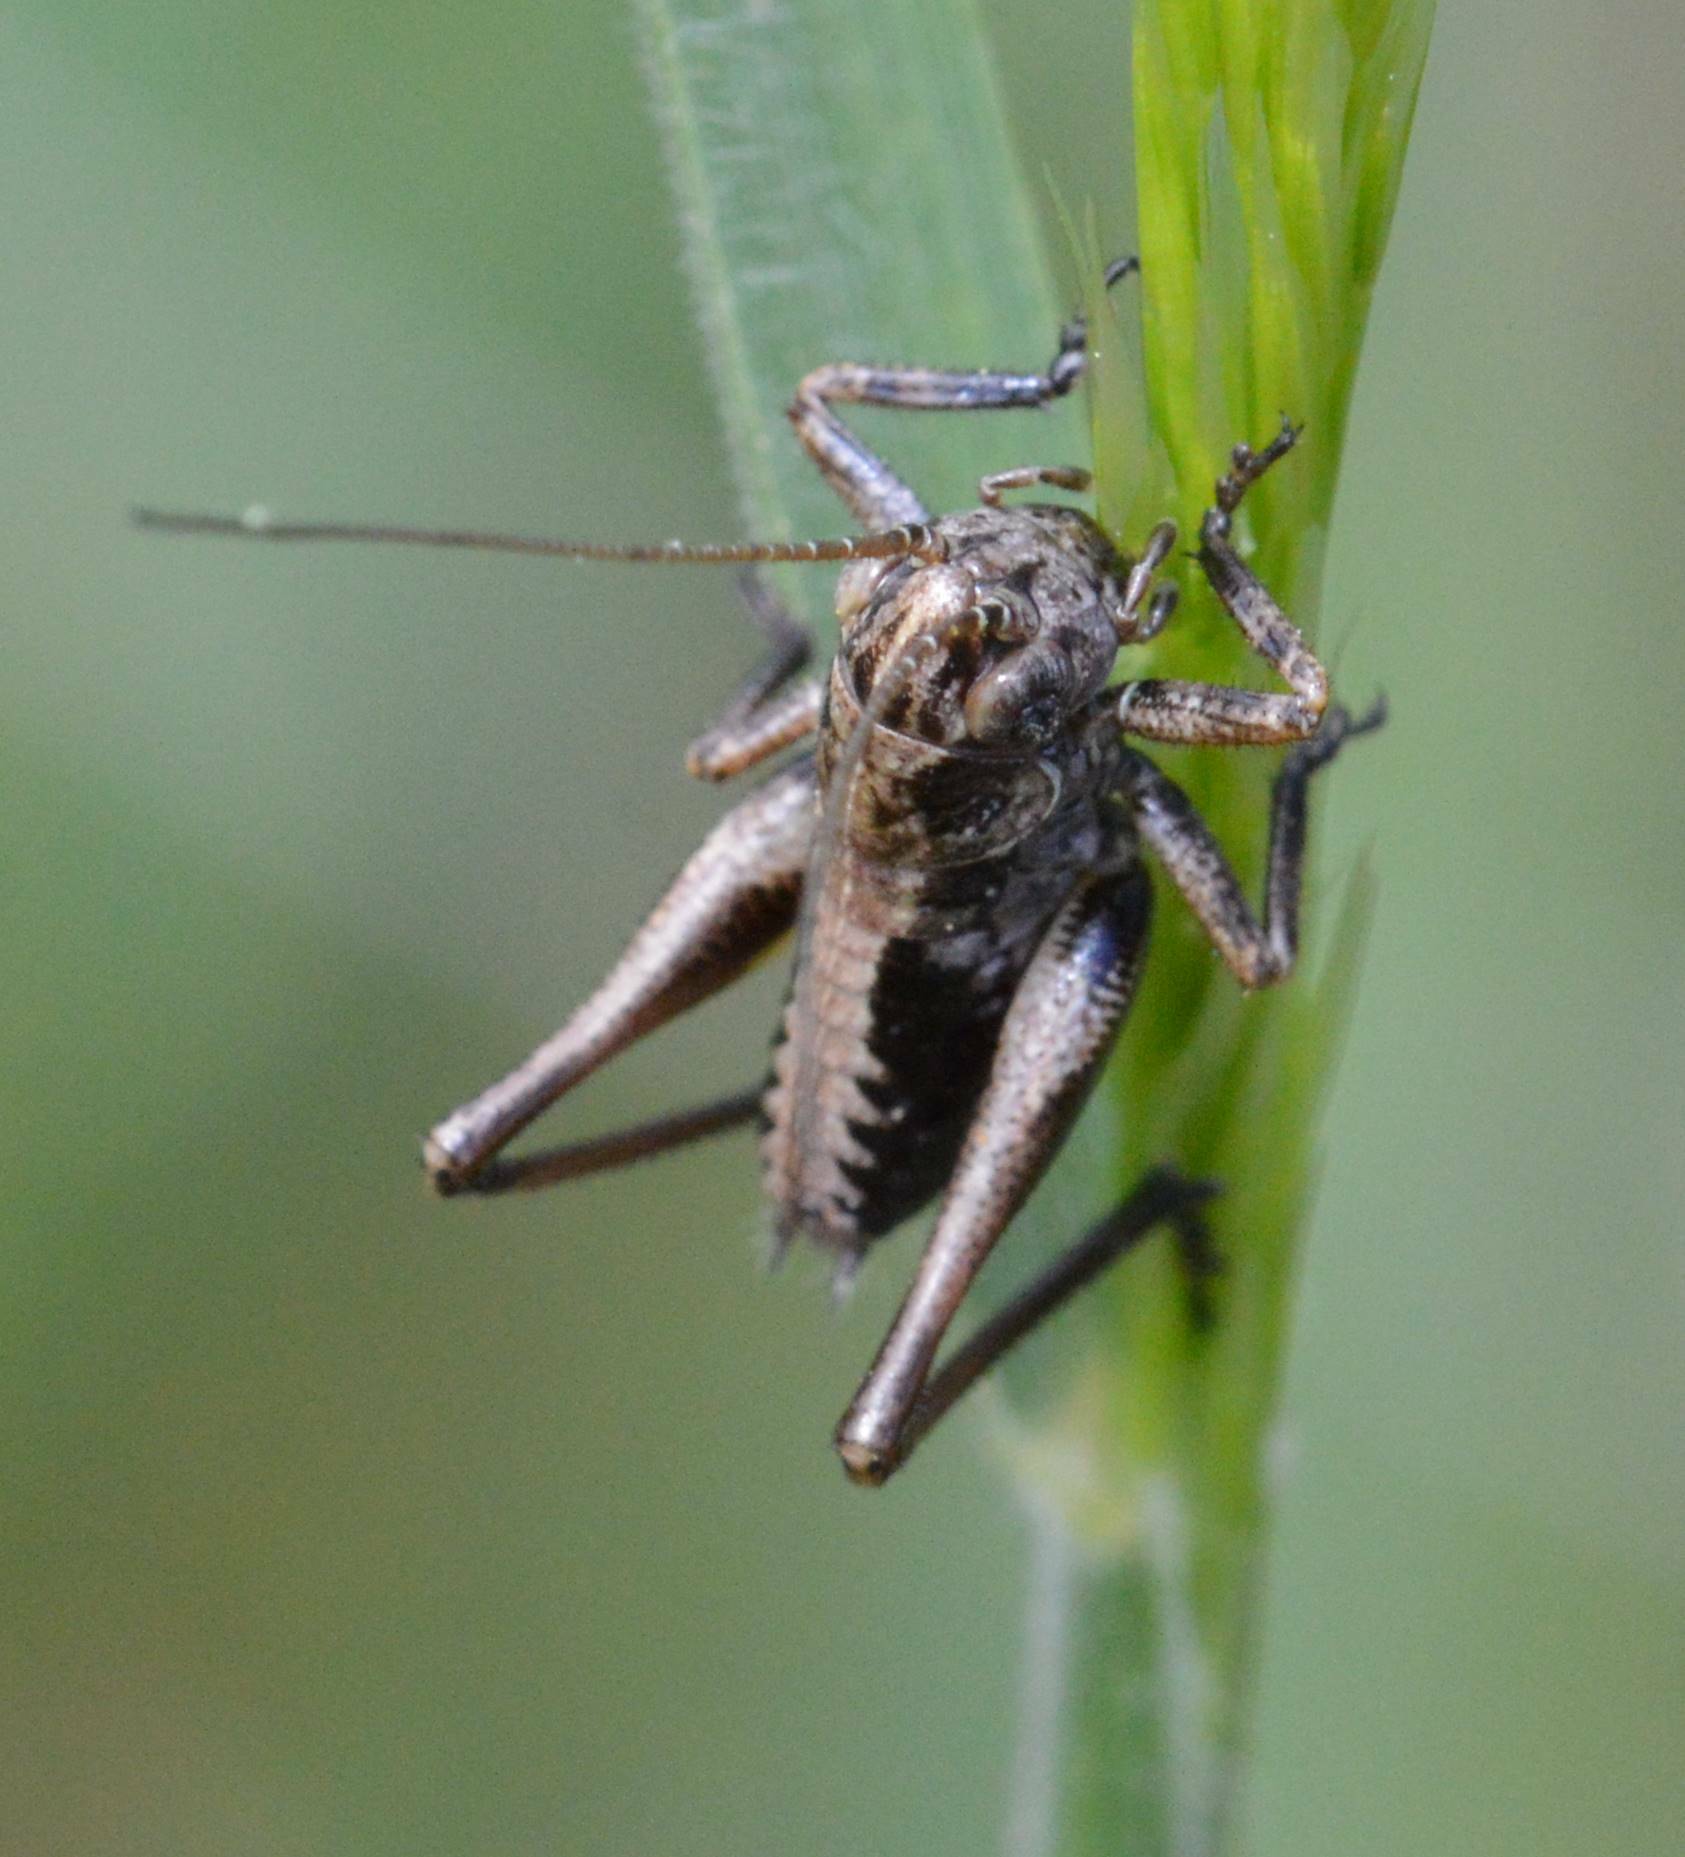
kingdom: Animalia
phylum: Arthropoda
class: Insecta
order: Orthoptera
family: Tettigoniidae
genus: Decticus
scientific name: Decticus albifrons
